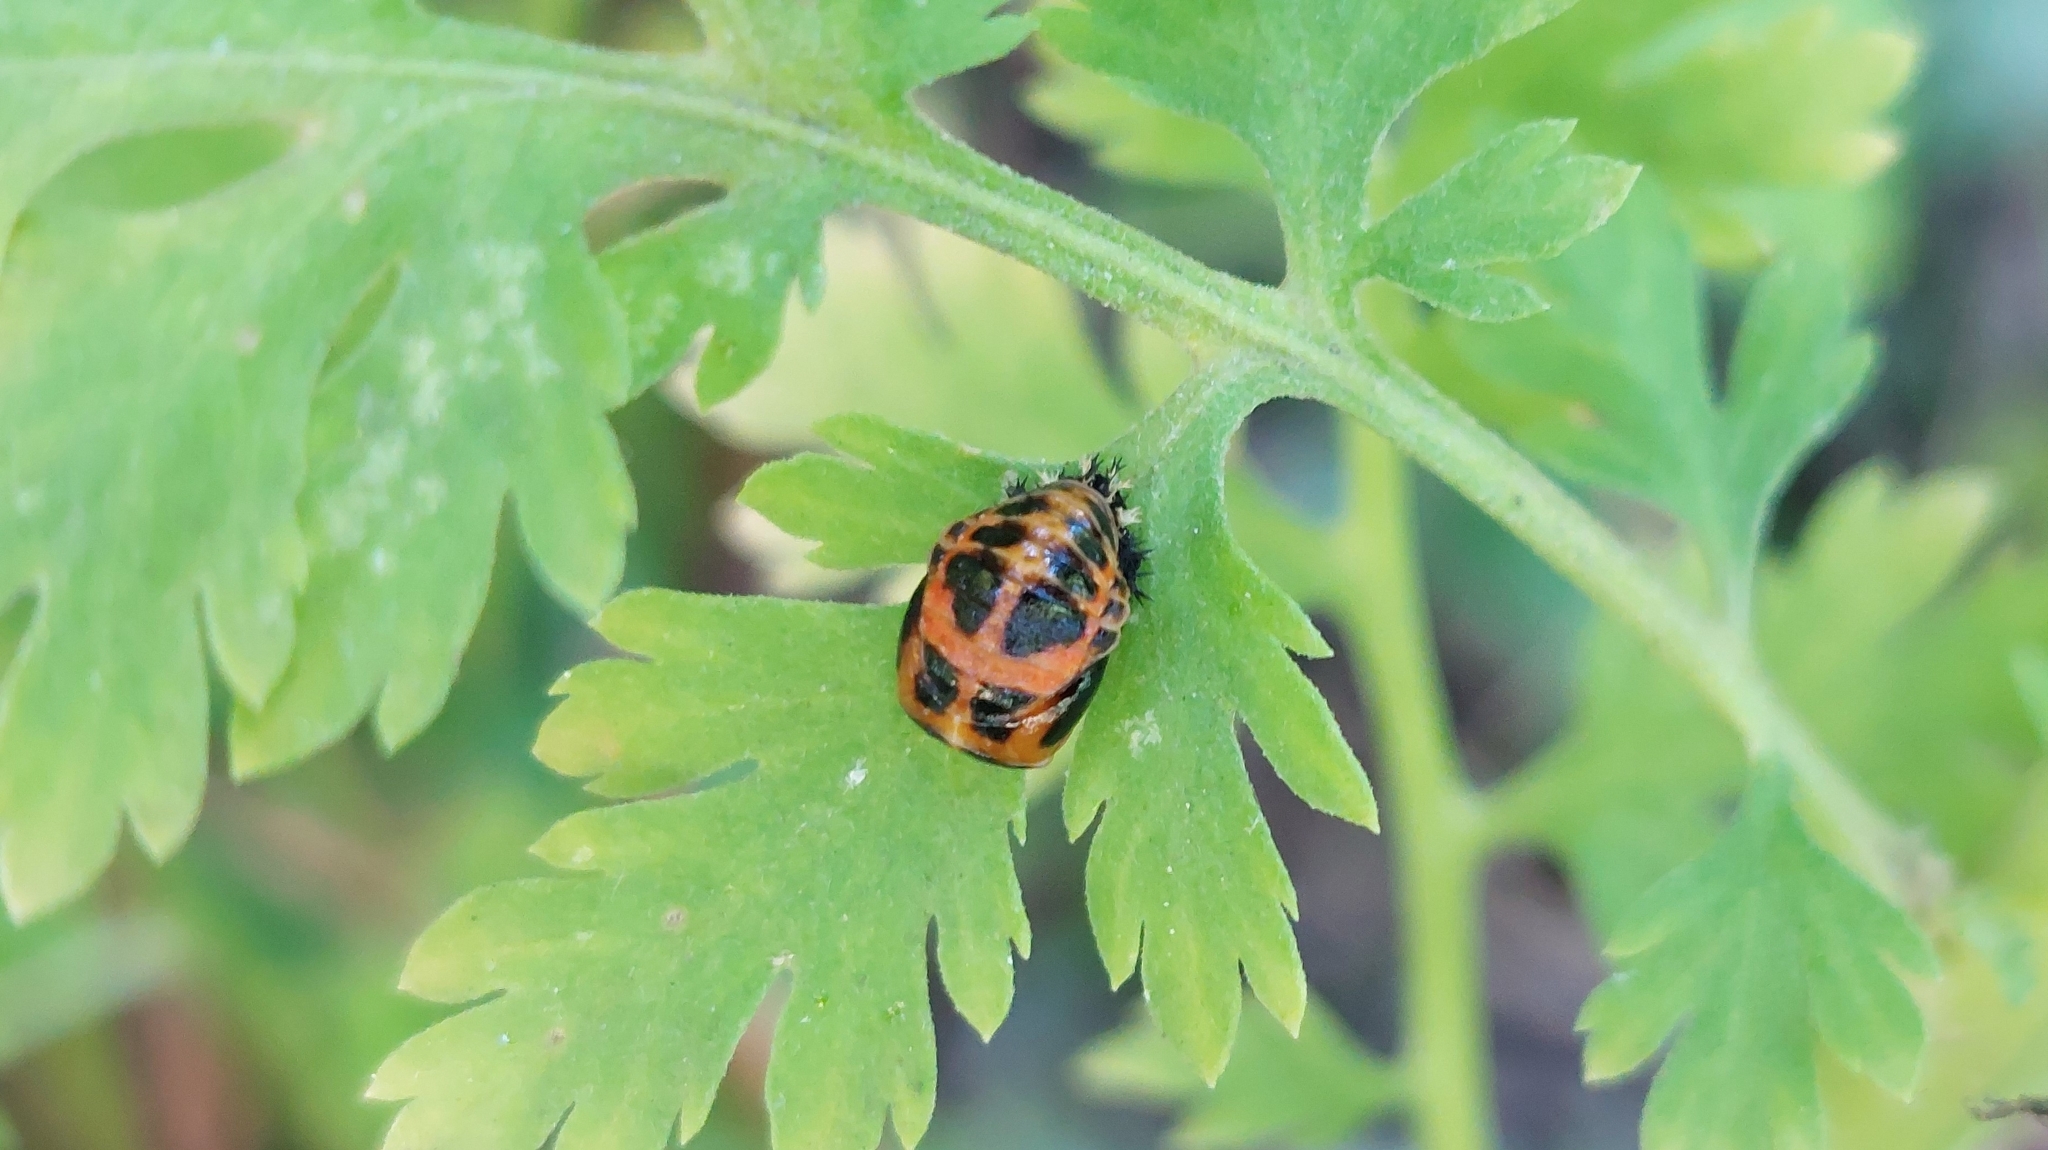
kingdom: Animalia
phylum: Arthropoda
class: Insecta
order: Coleoptera
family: Coccinellidae
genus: Harmonia
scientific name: Harmonia axyridis
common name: Harlequin ladybird
